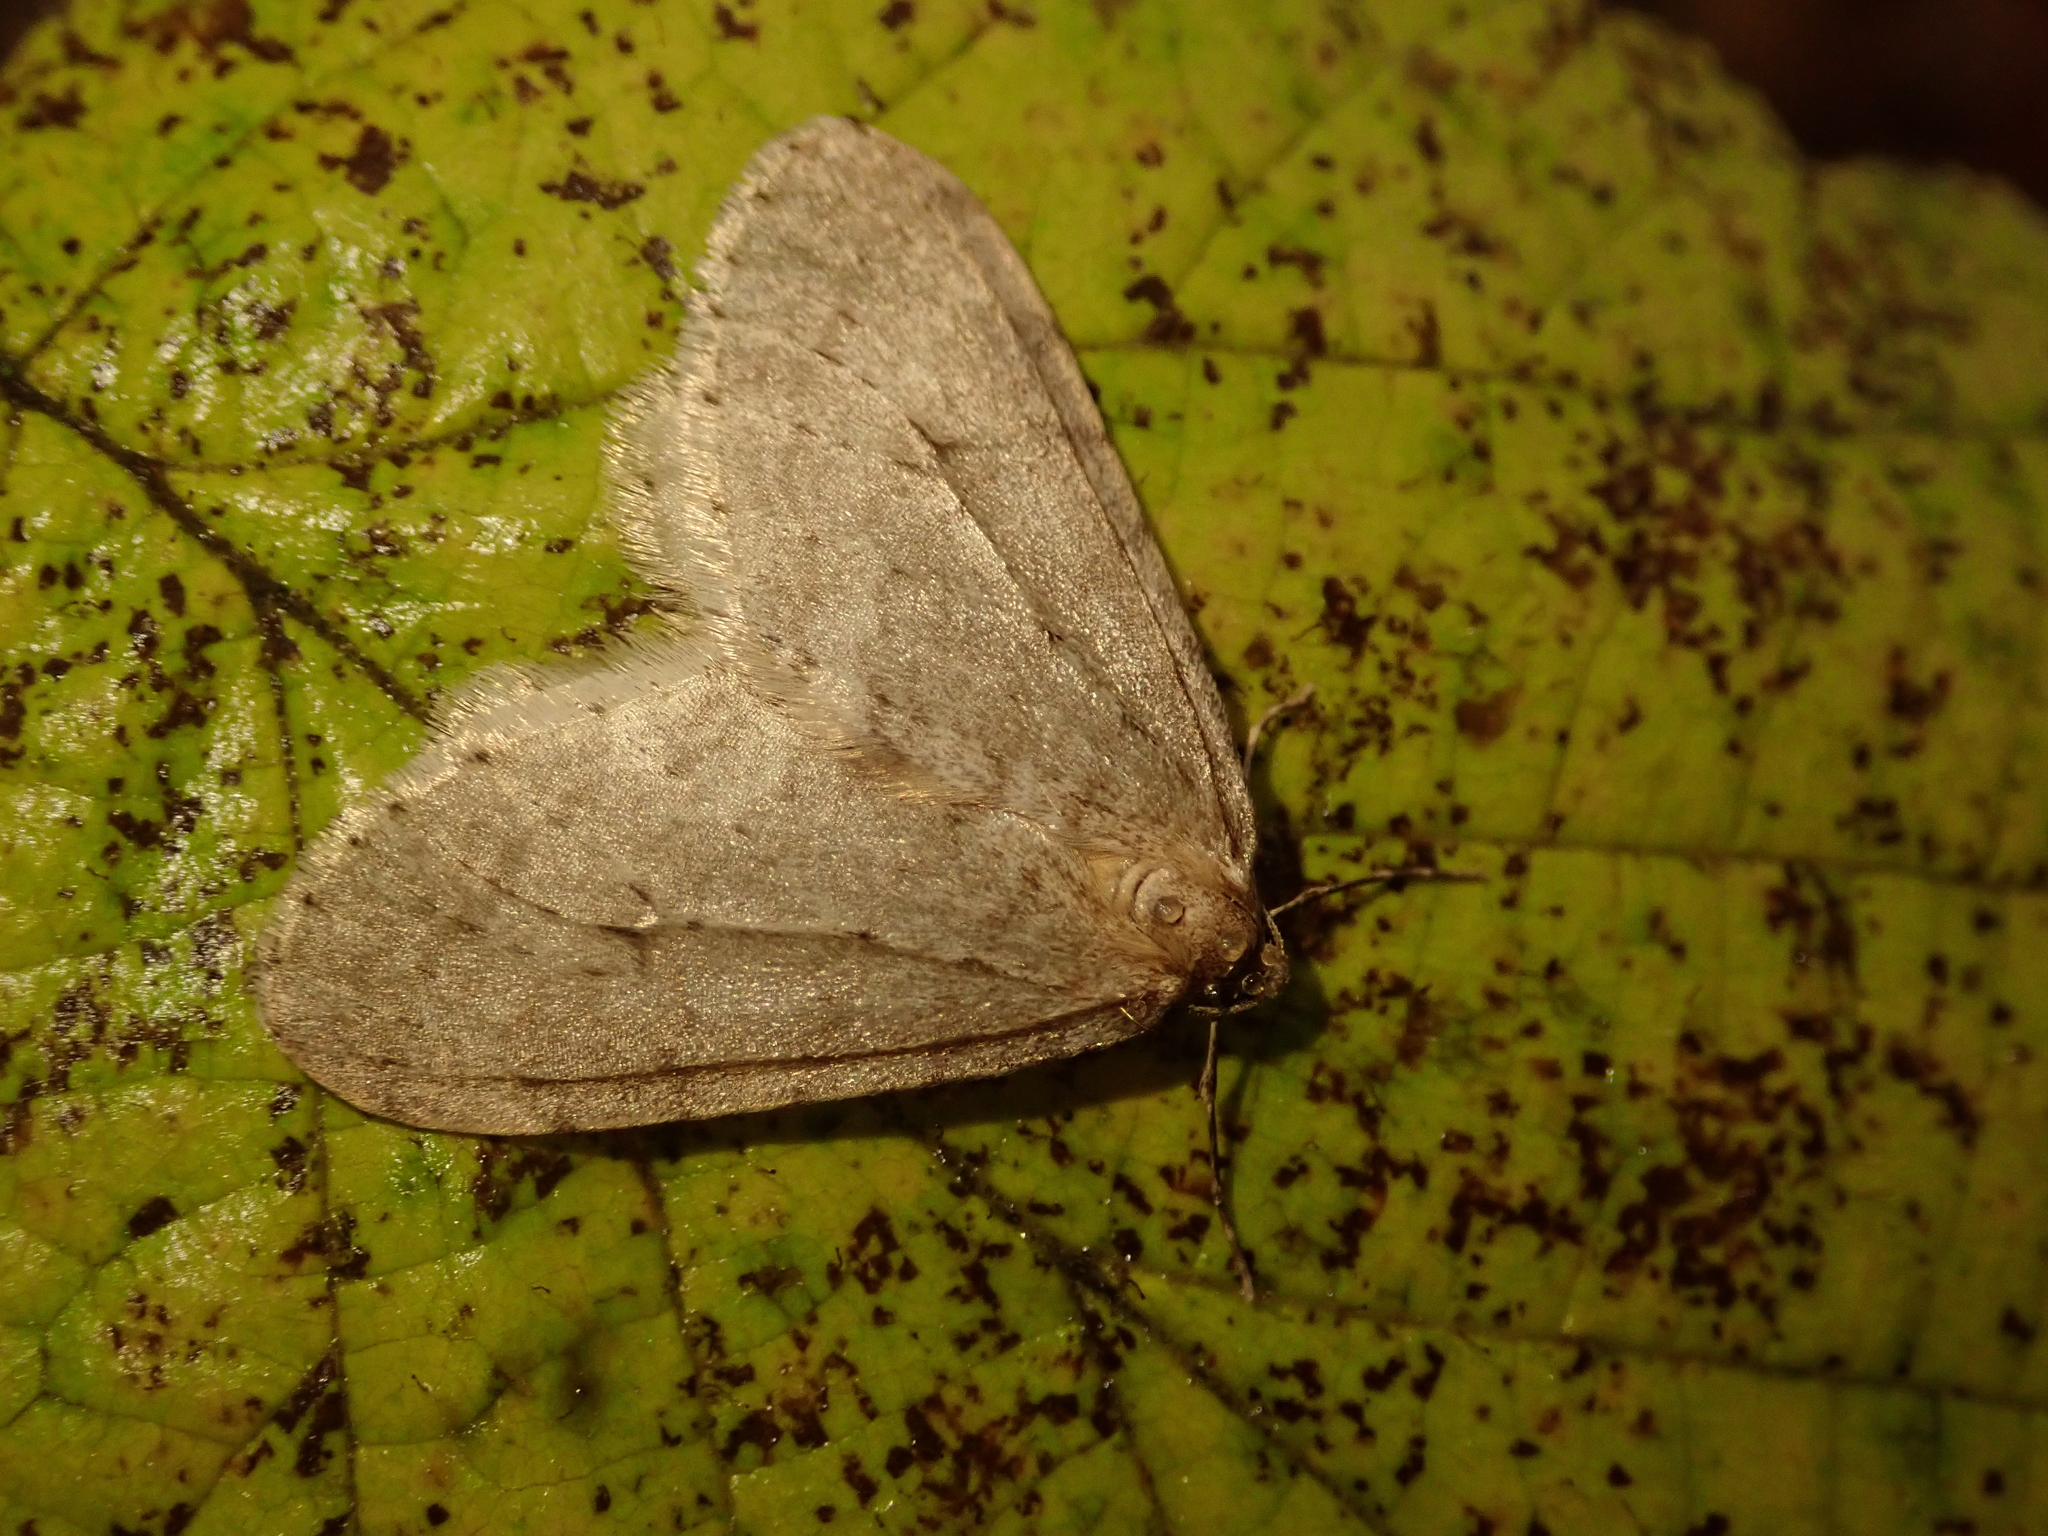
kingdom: Animalia
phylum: Arthropoda
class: Insecta
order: Lepidoptera
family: Geometridae
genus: Operophtera
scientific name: Operophtera brumata
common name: Winter moth
